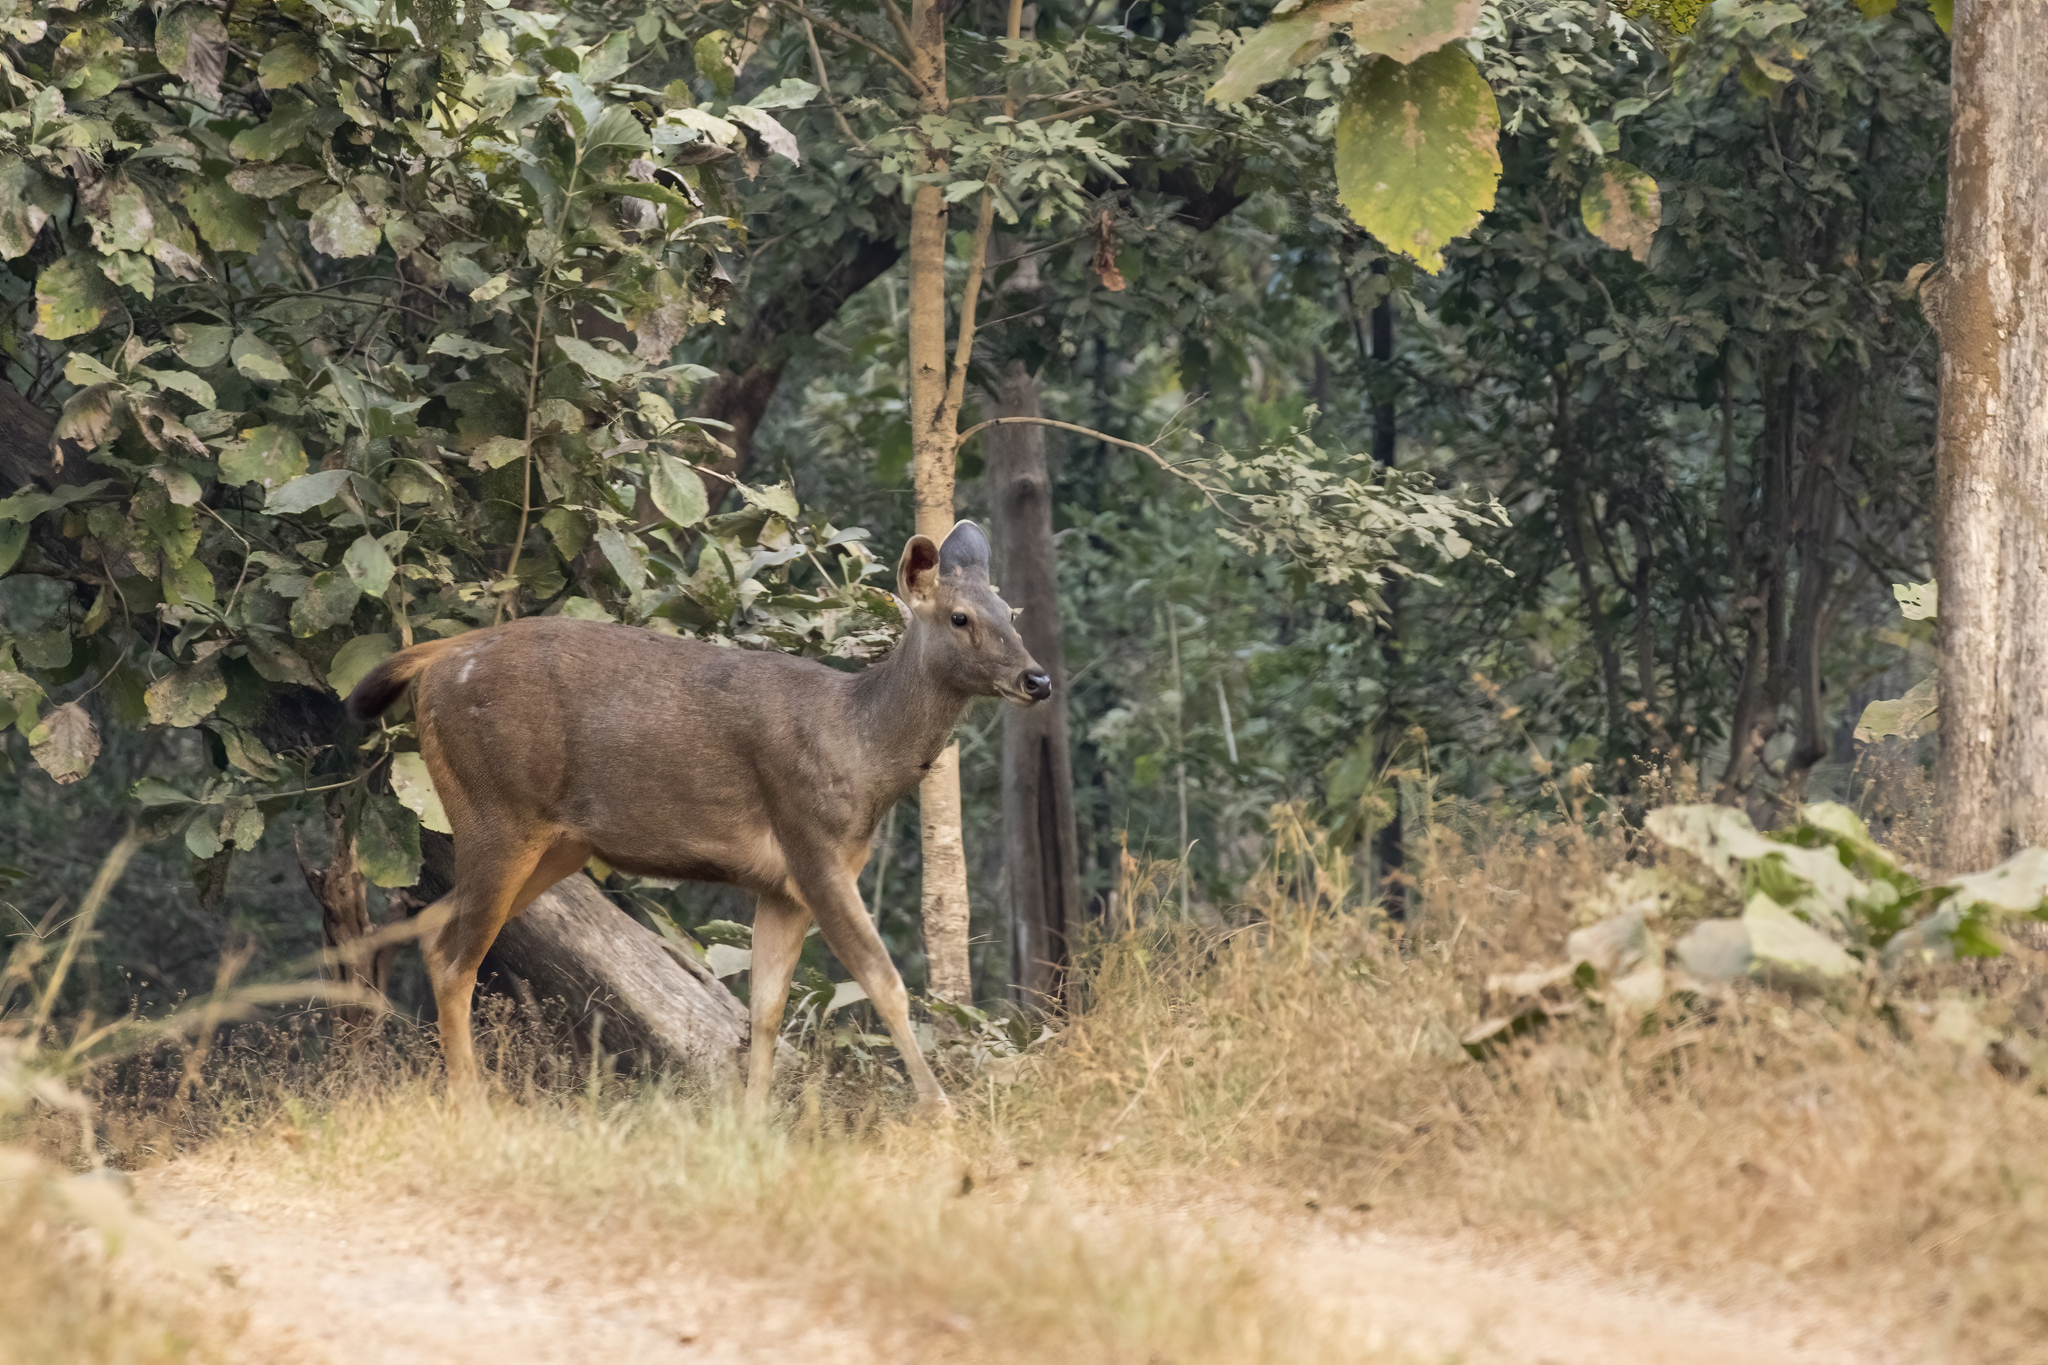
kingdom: Animalia
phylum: Chordata
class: Mammalia
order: Artiodactyla
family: Cervidae
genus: Rusa
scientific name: Rusa unicolor
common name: Sambar
